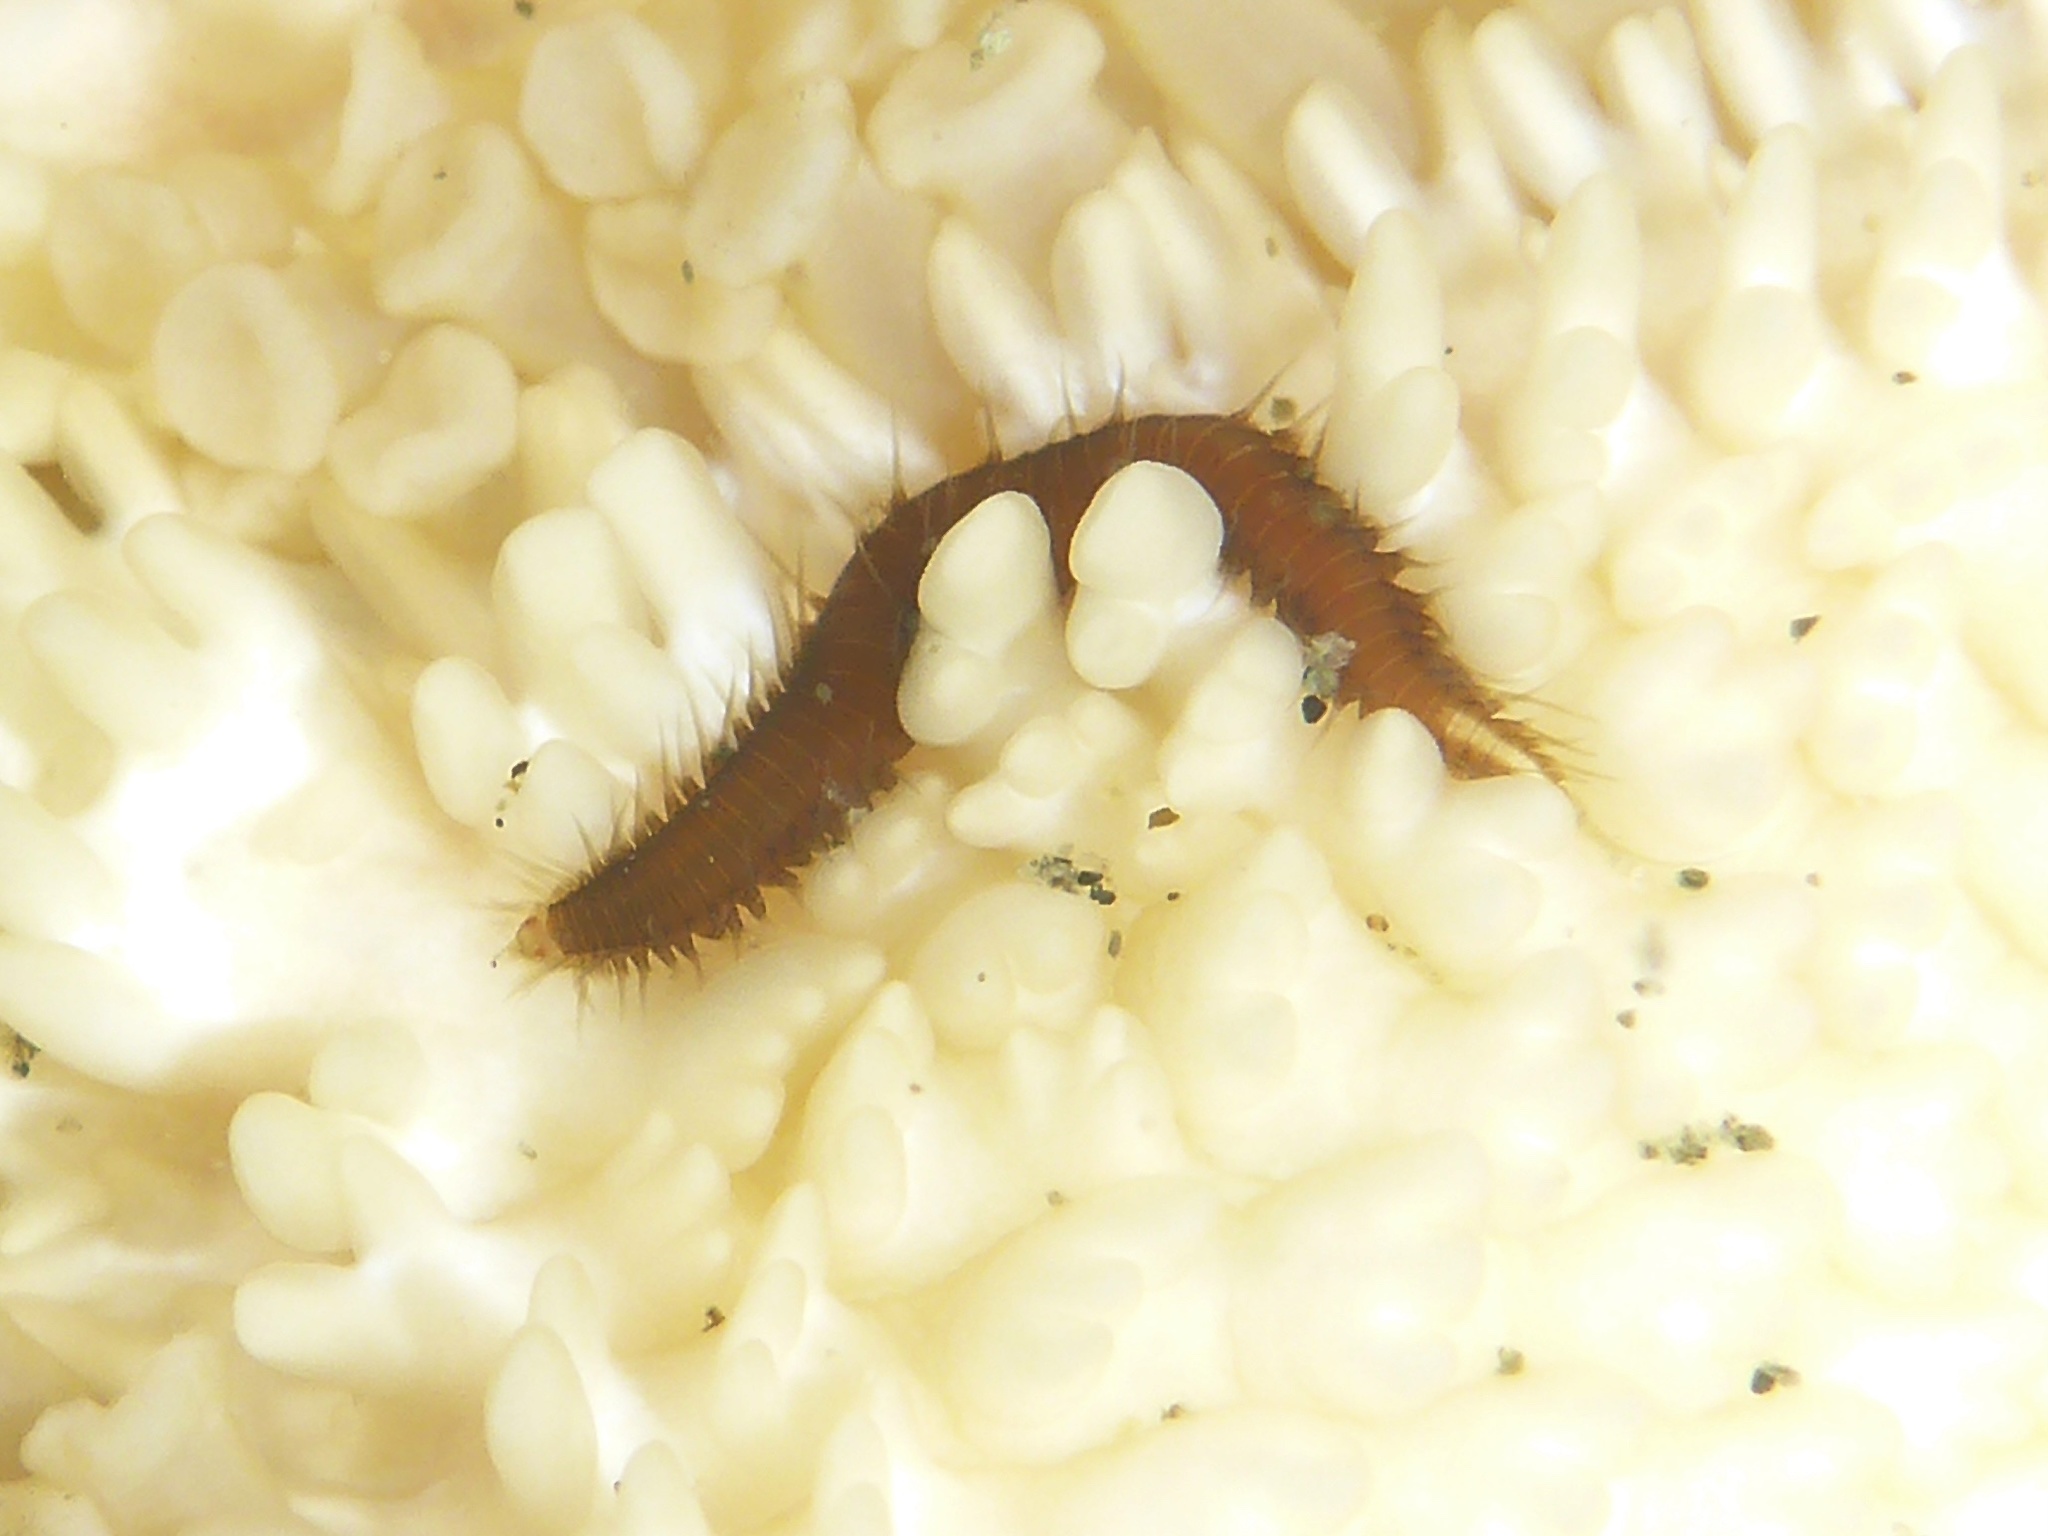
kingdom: Animalia
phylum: Annelida
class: Polychaeta
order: Phyllodocida
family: Hesionidae
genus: Oxydromus
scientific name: Oxydromus pugettensis
